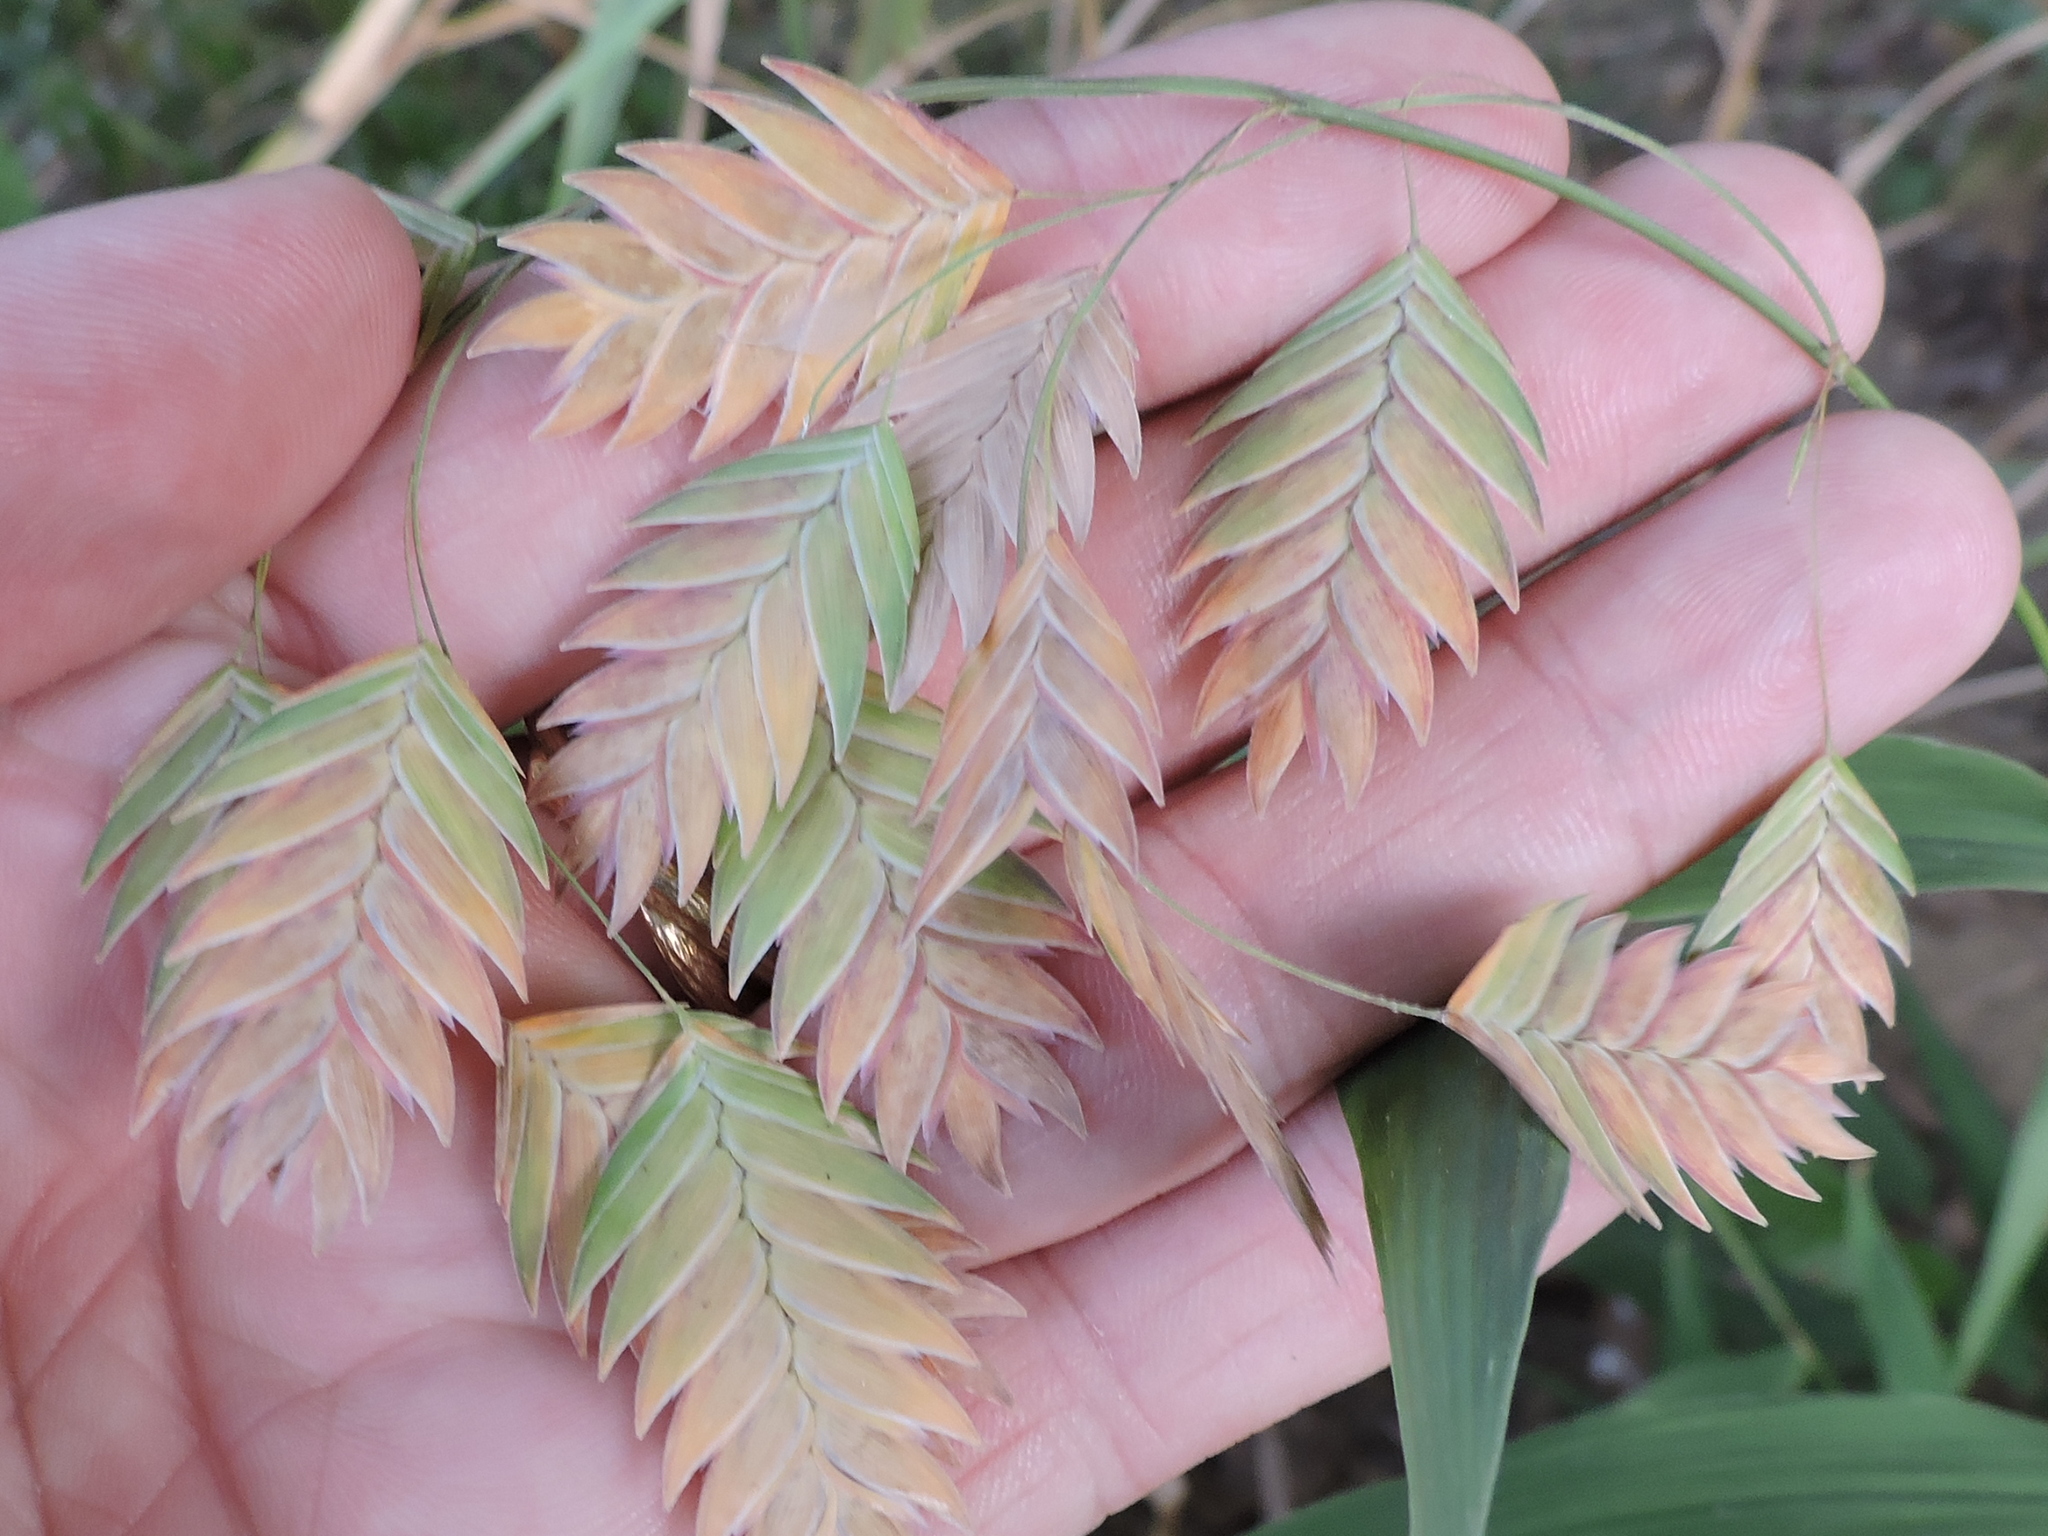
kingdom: Plantae
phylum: Tracheophyta
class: Liliopsida
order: Poales
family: Poaceae
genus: Chasmanthium
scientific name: Chasmanthium latifolium
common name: Broad-leaved chasmanthium
